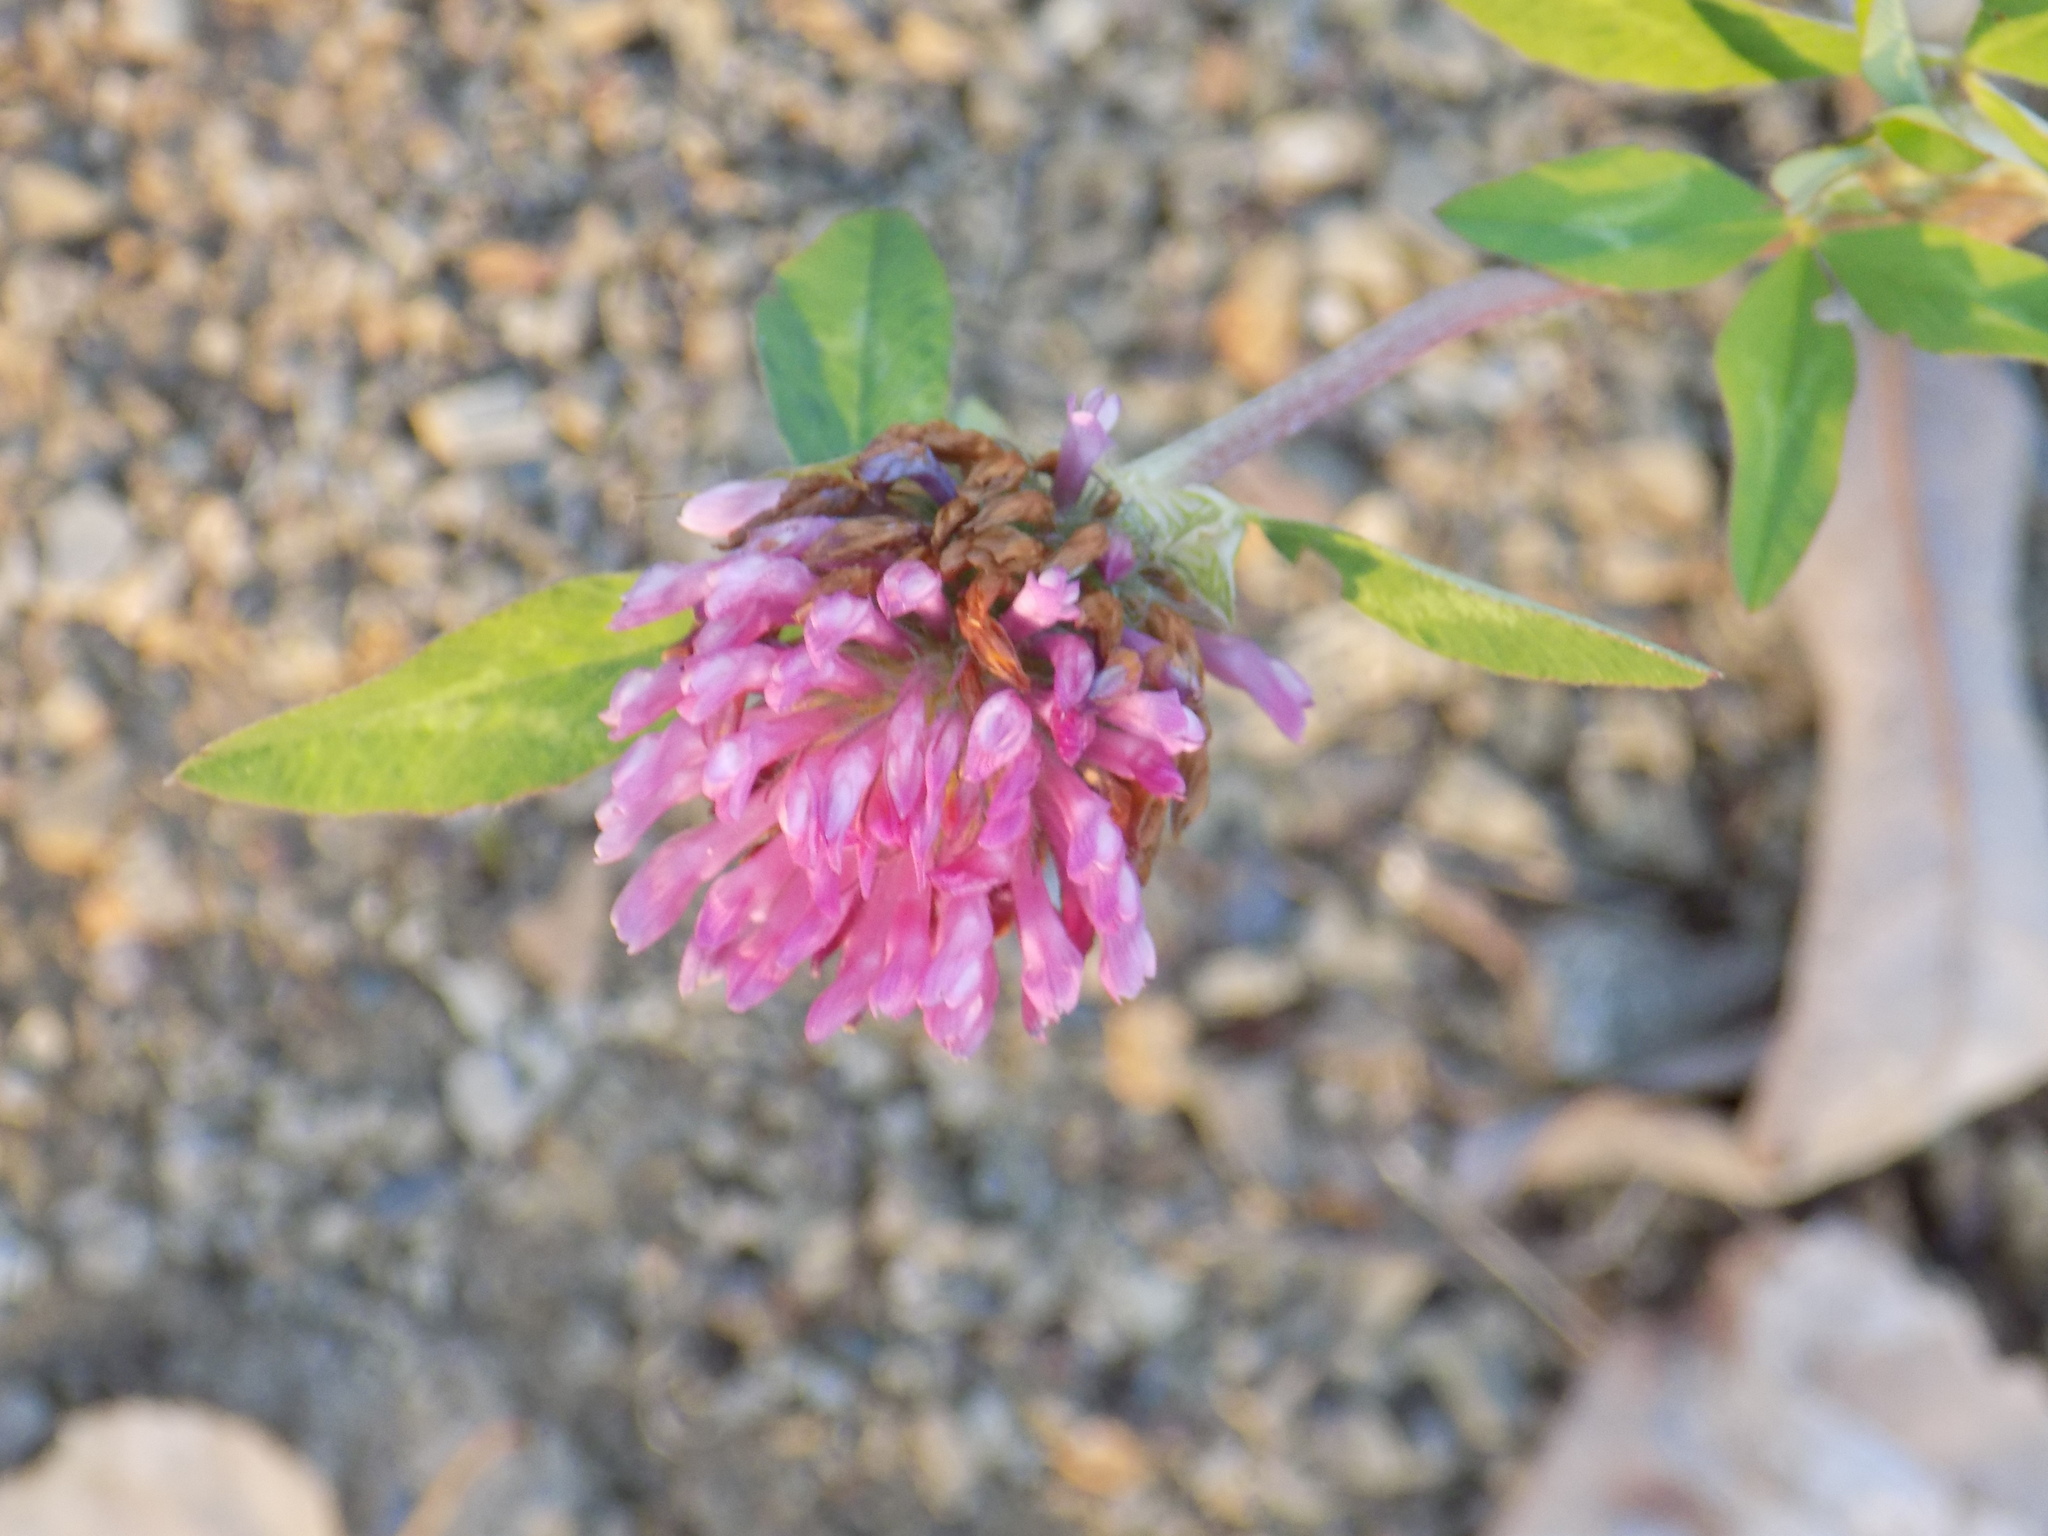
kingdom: Plantae
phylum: Tracheophyta
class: Magnoliopsida
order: Fabales
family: Fabaceae
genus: Trifolium
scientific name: Trifolium pratense
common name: Red clover
